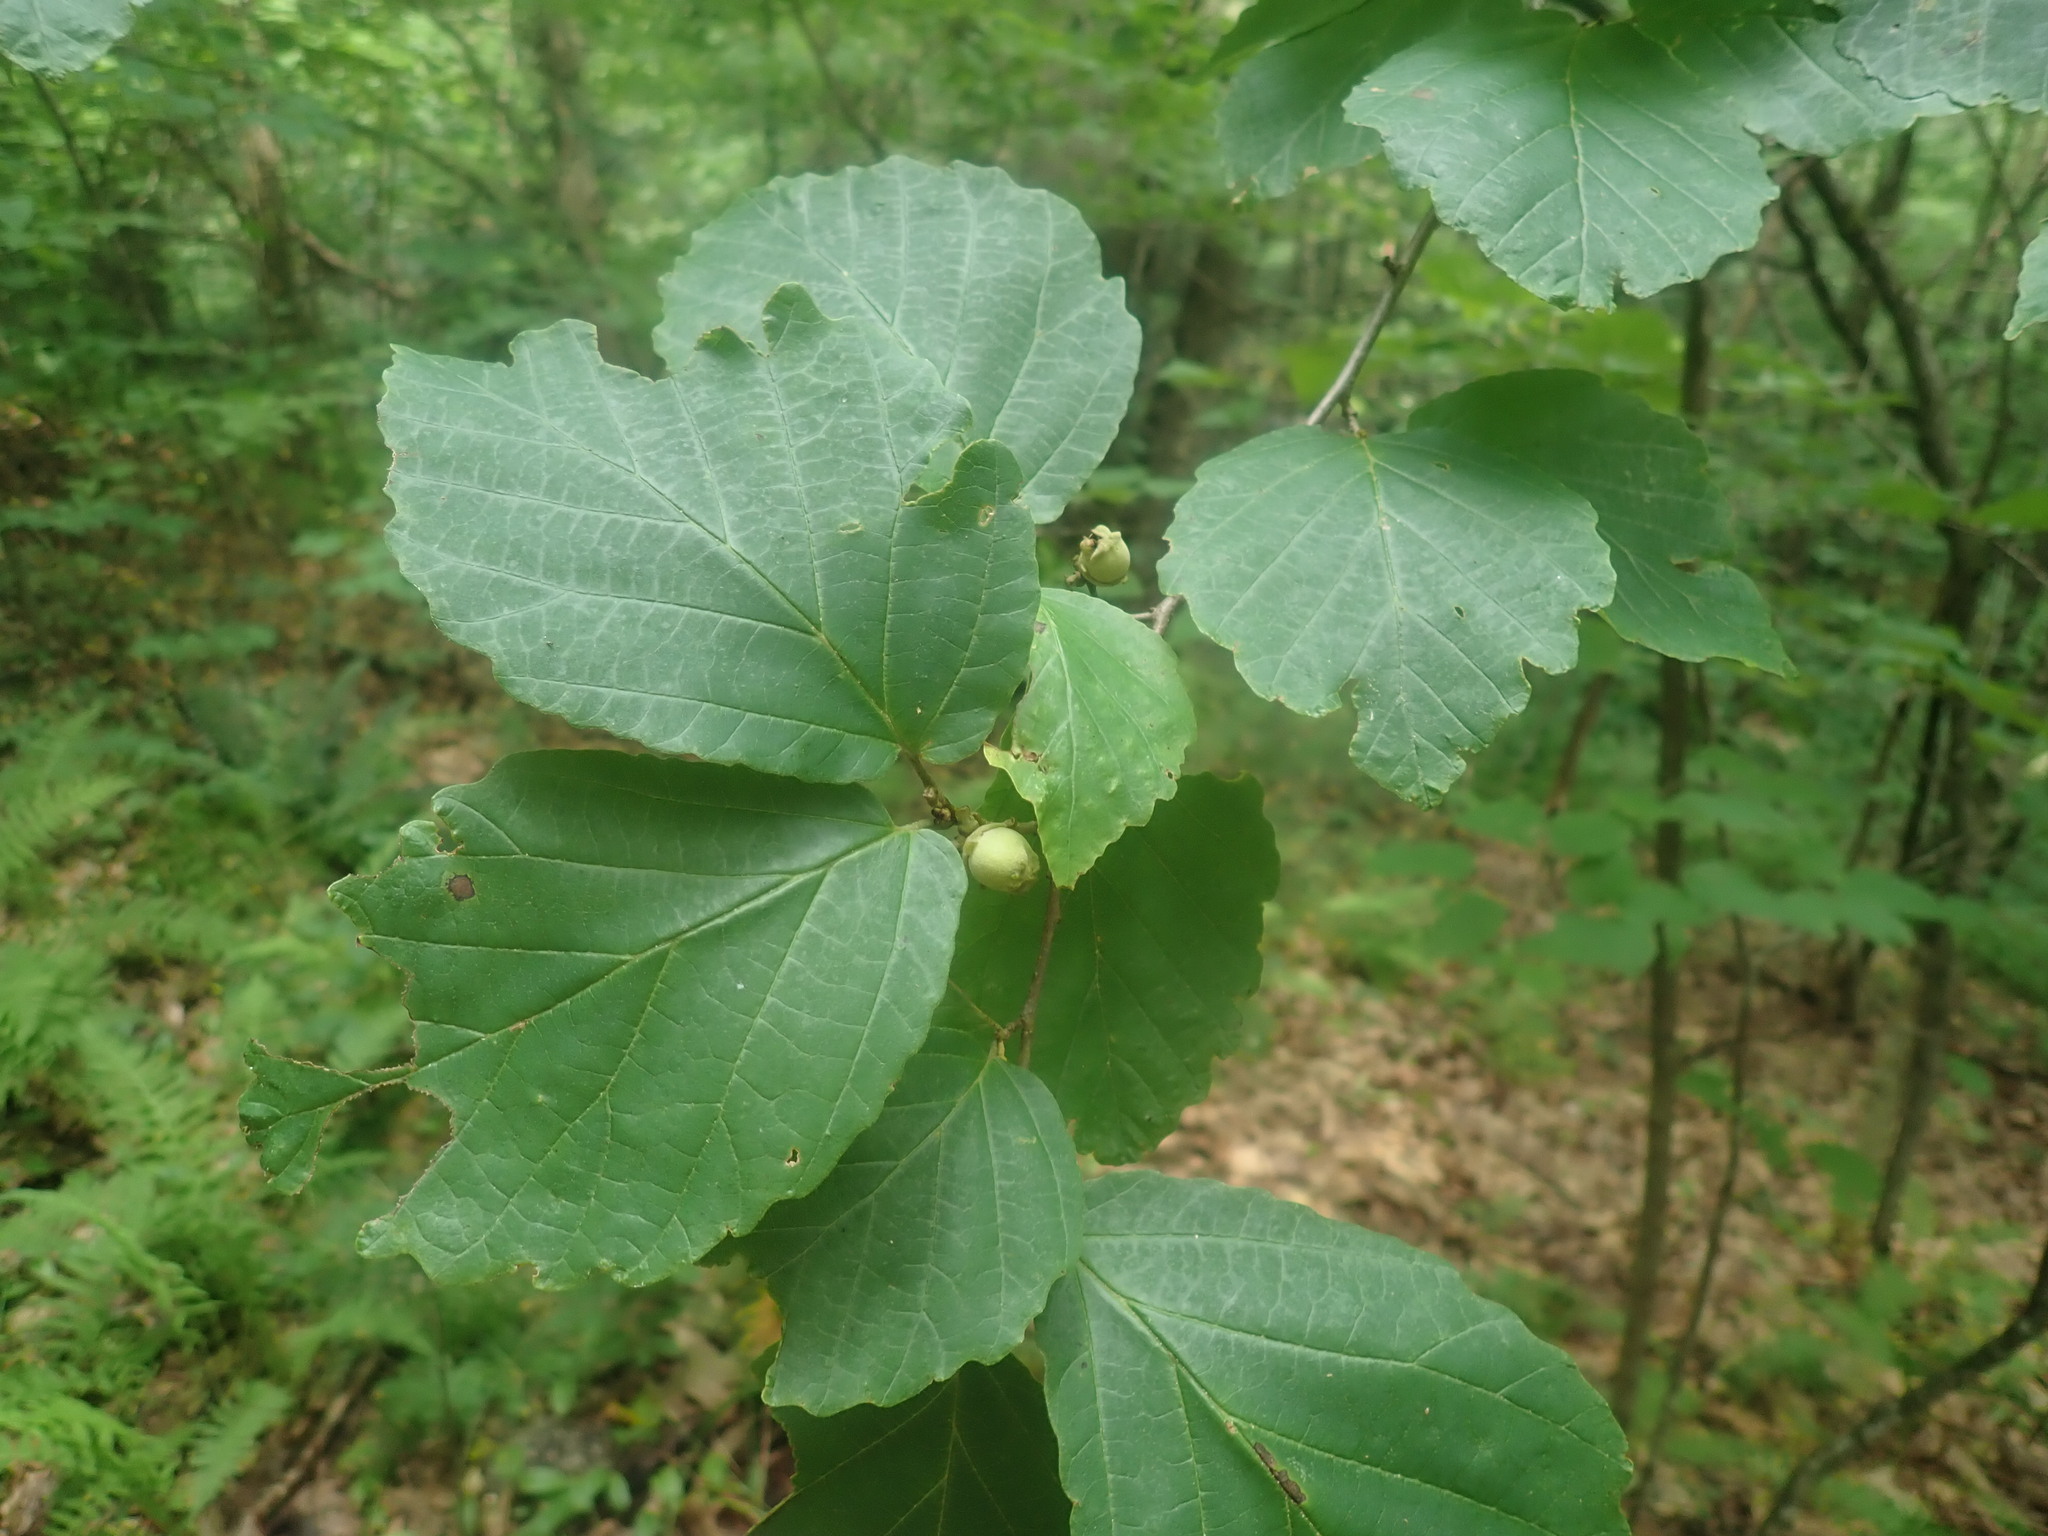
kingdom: Plantae
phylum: Tracheophyta
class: Magnoliopsida
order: Saxifragales
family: Hamamelidaceae
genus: Hamamelis
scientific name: Hamamelis virginiana
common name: Witch-hazel
